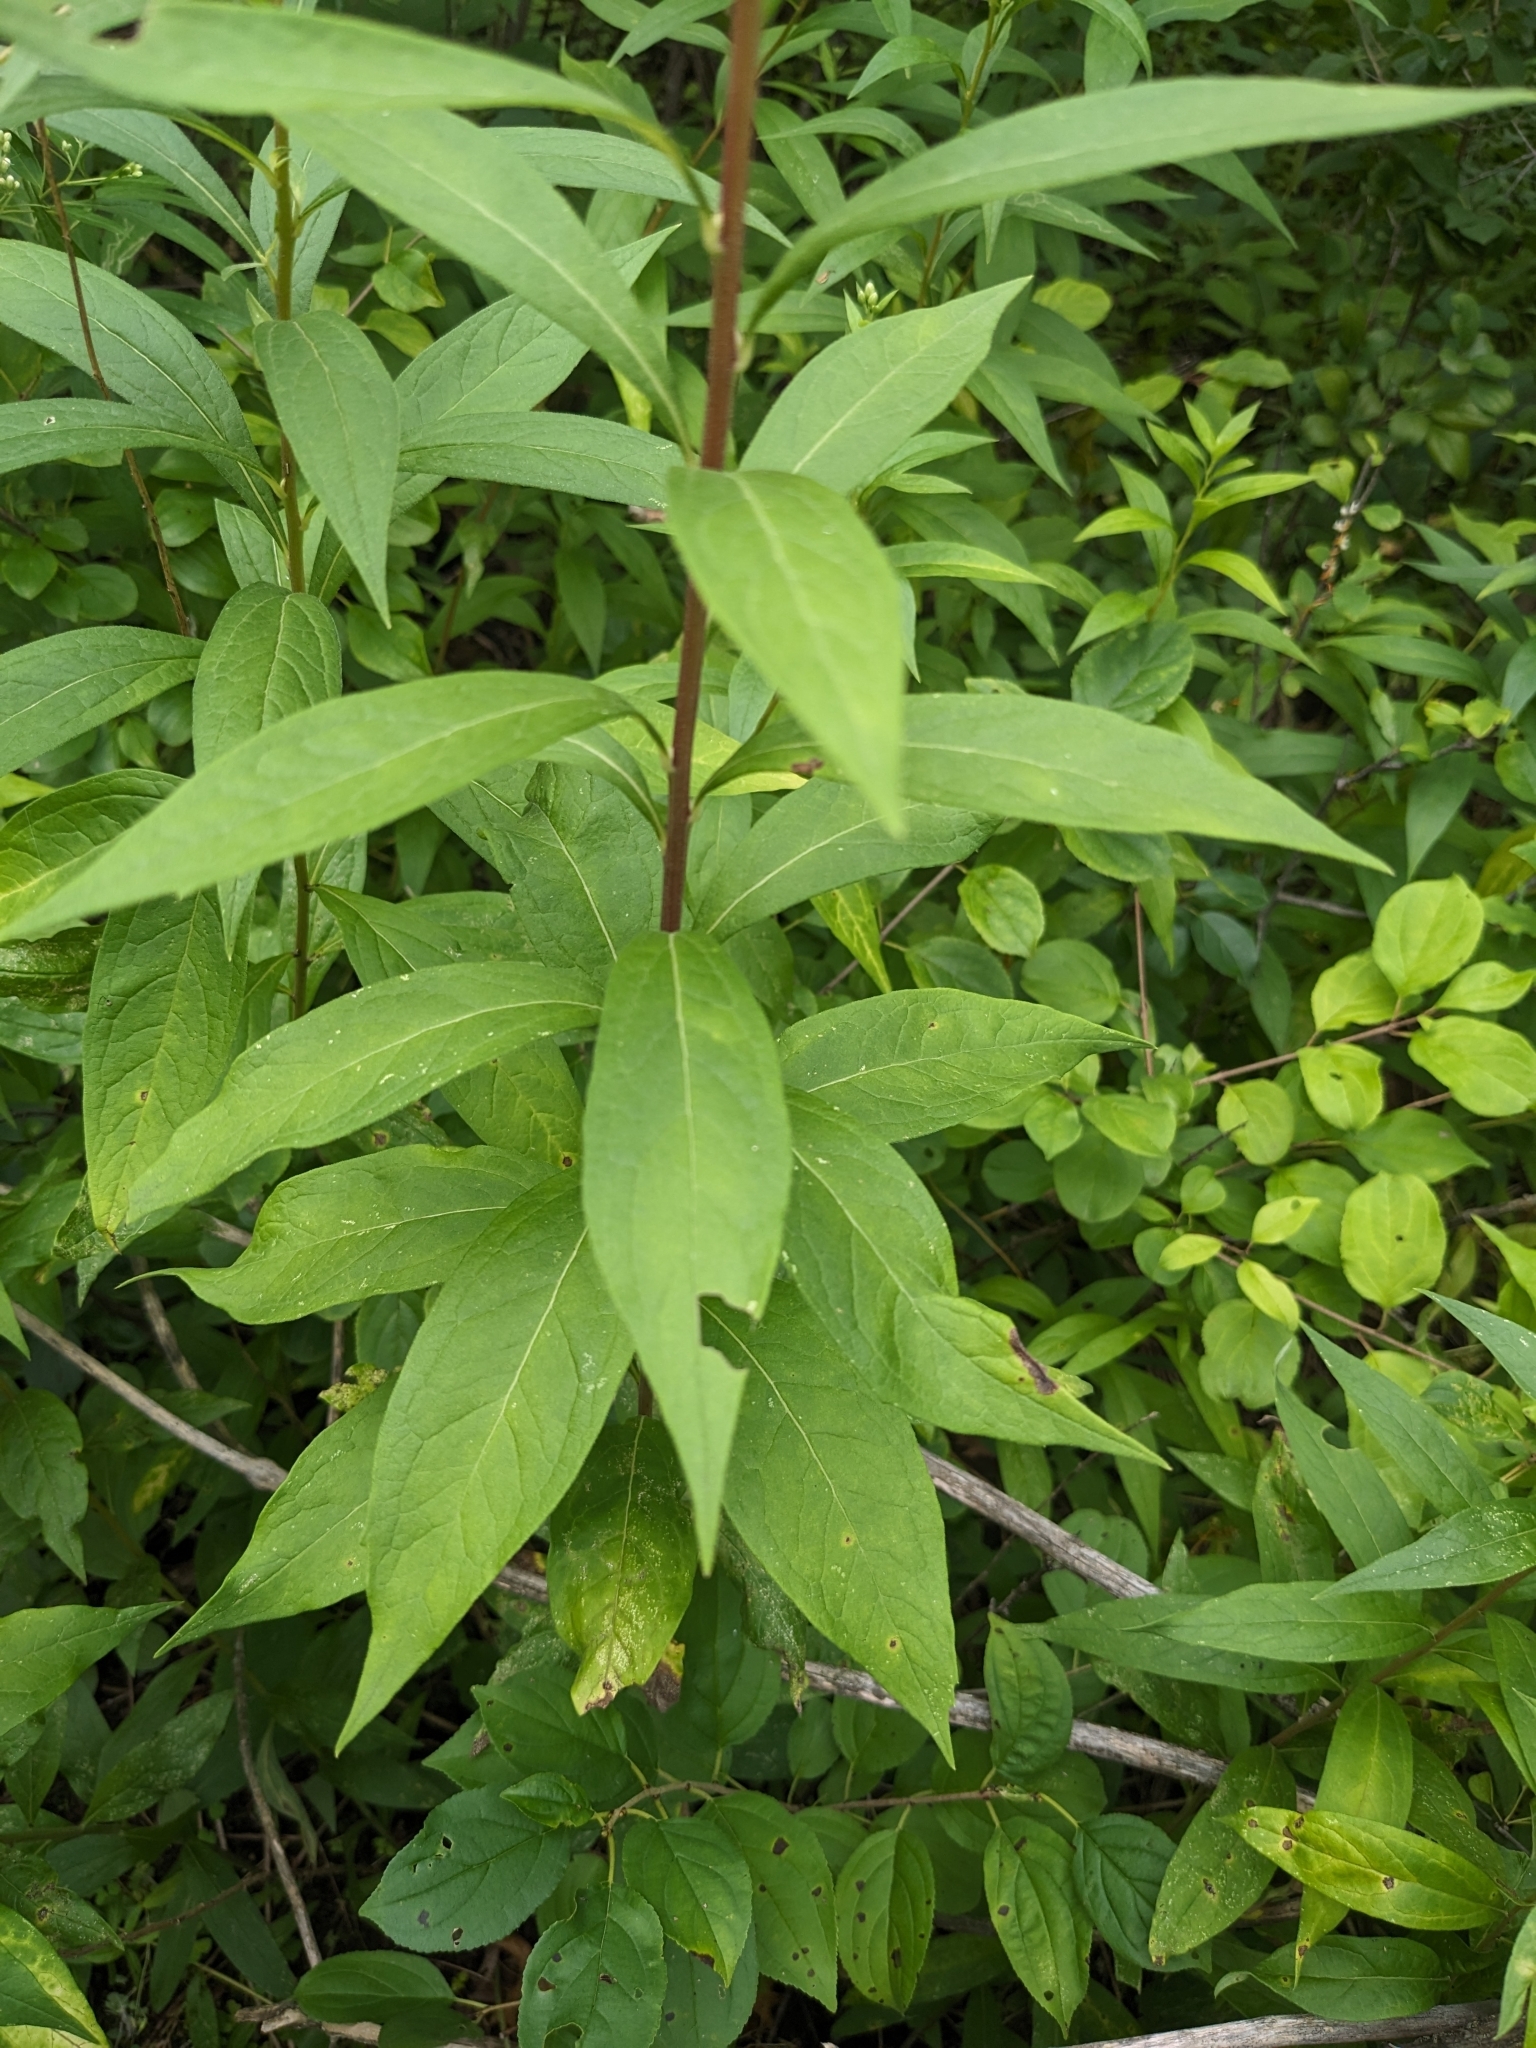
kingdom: Plantae
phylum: Tracheophyta
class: Magnoliopsida
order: Asterales
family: Asteraceae
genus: Doellingeria
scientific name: Doellingeria umbellata
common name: Flat-top white aster
